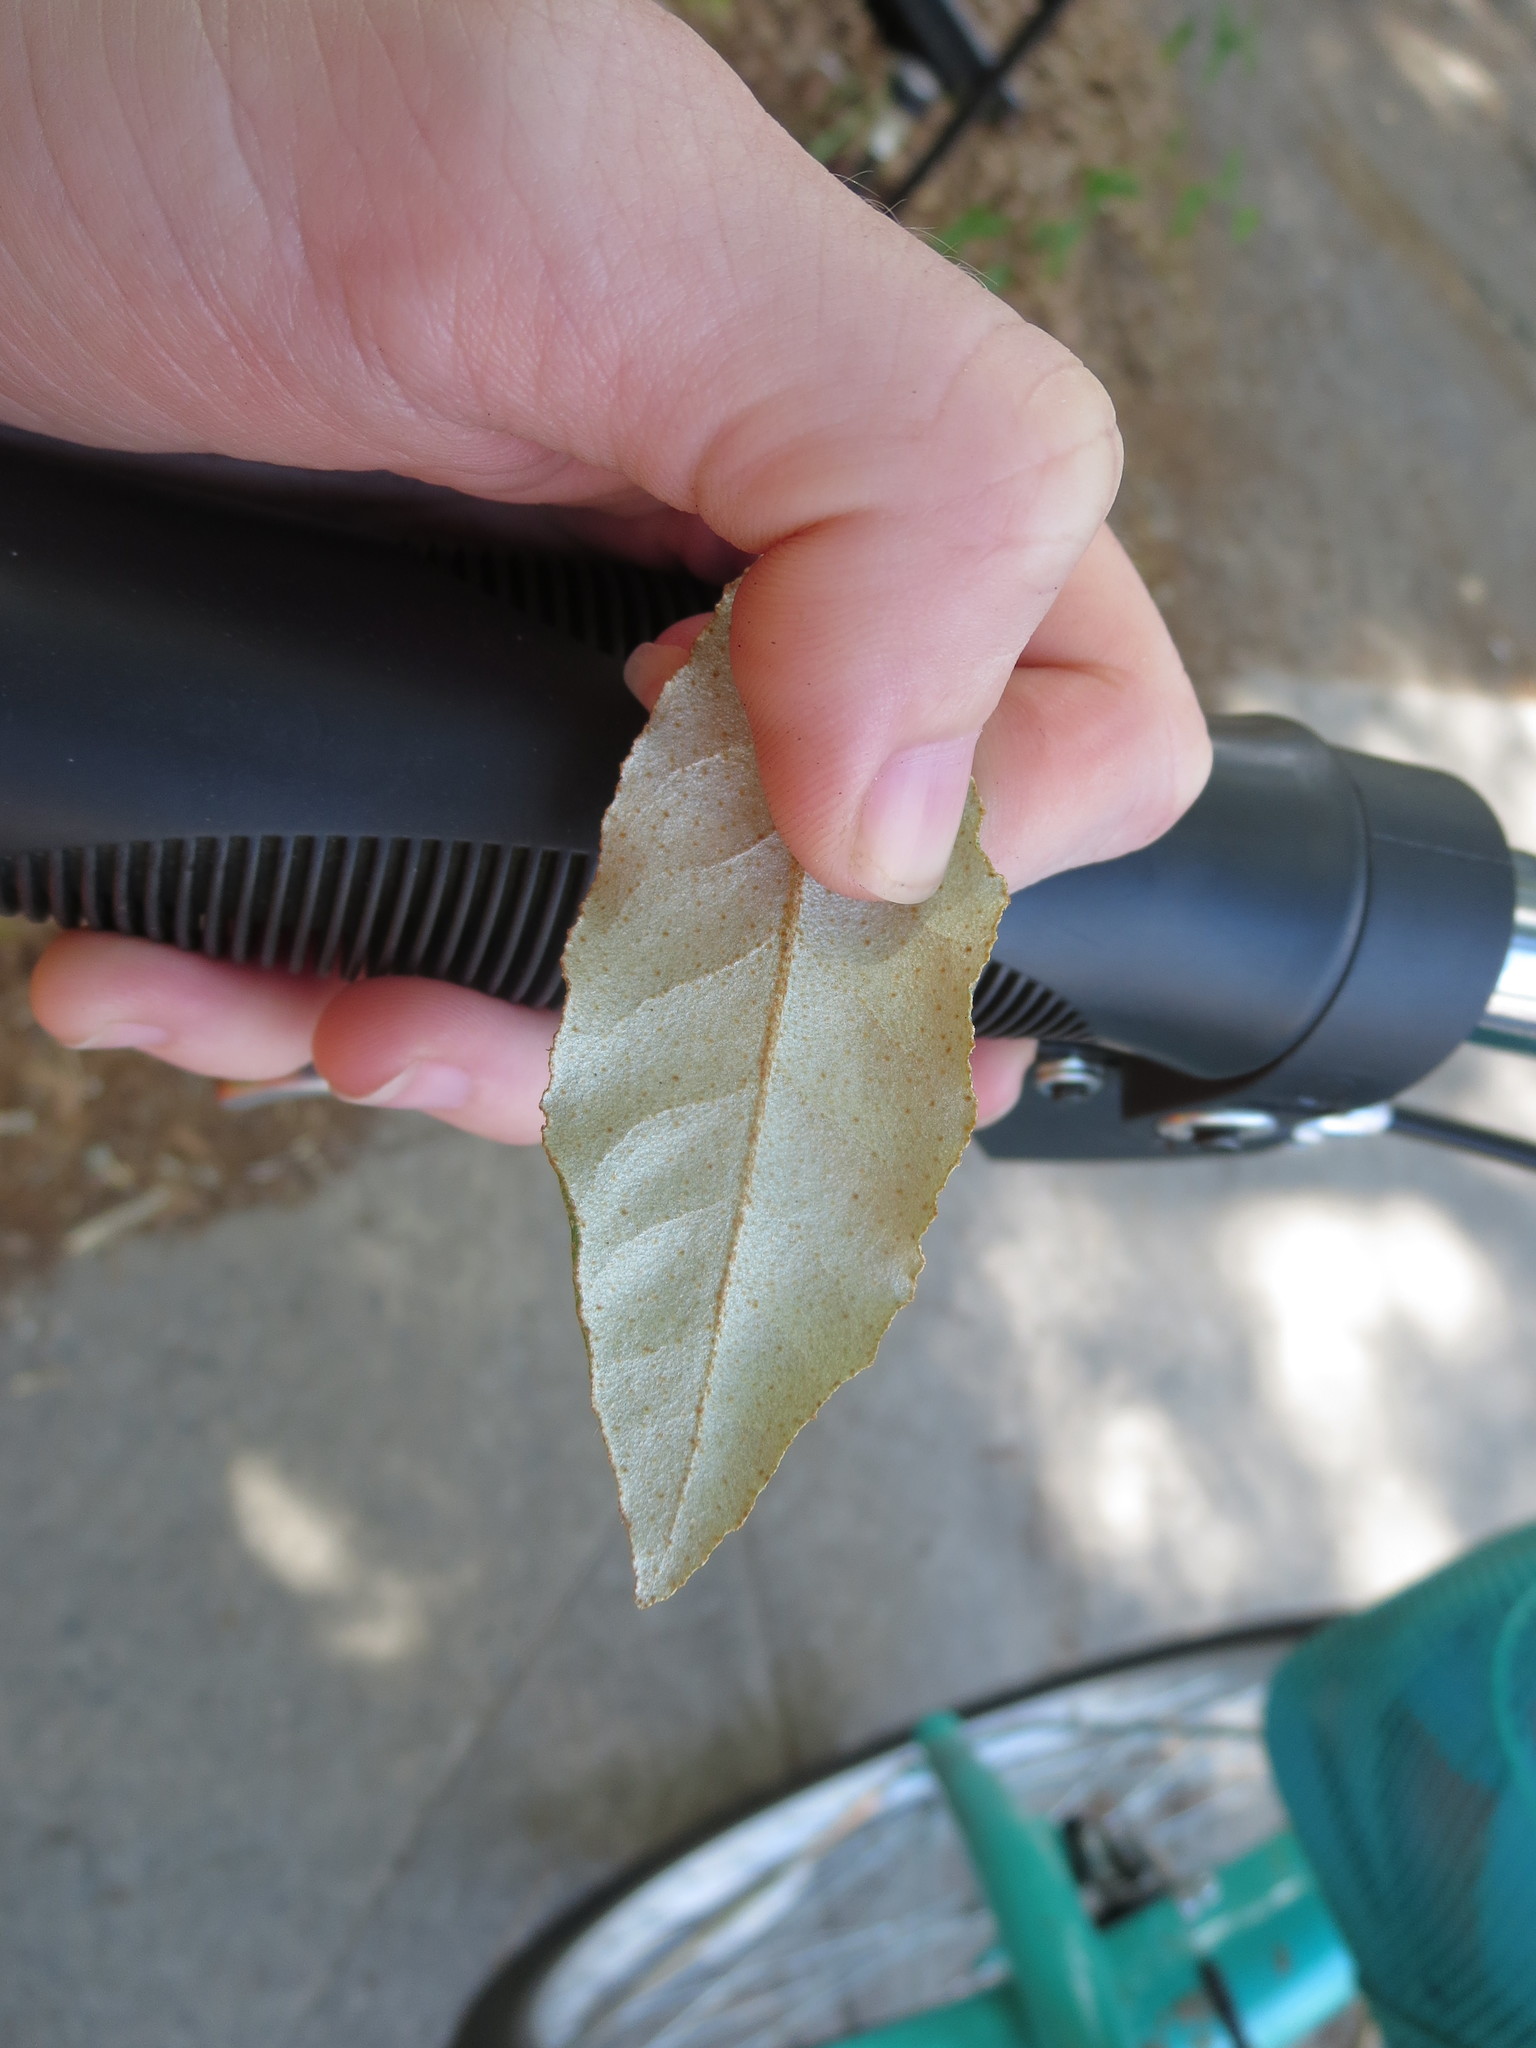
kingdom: Plantae
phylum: Tracheophyta
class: Magnoliopsida
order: Rosales
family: Elaeagnaceae
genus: Elaeagnus
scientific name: Elaeagnus pungens
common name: Spiny oleaster
